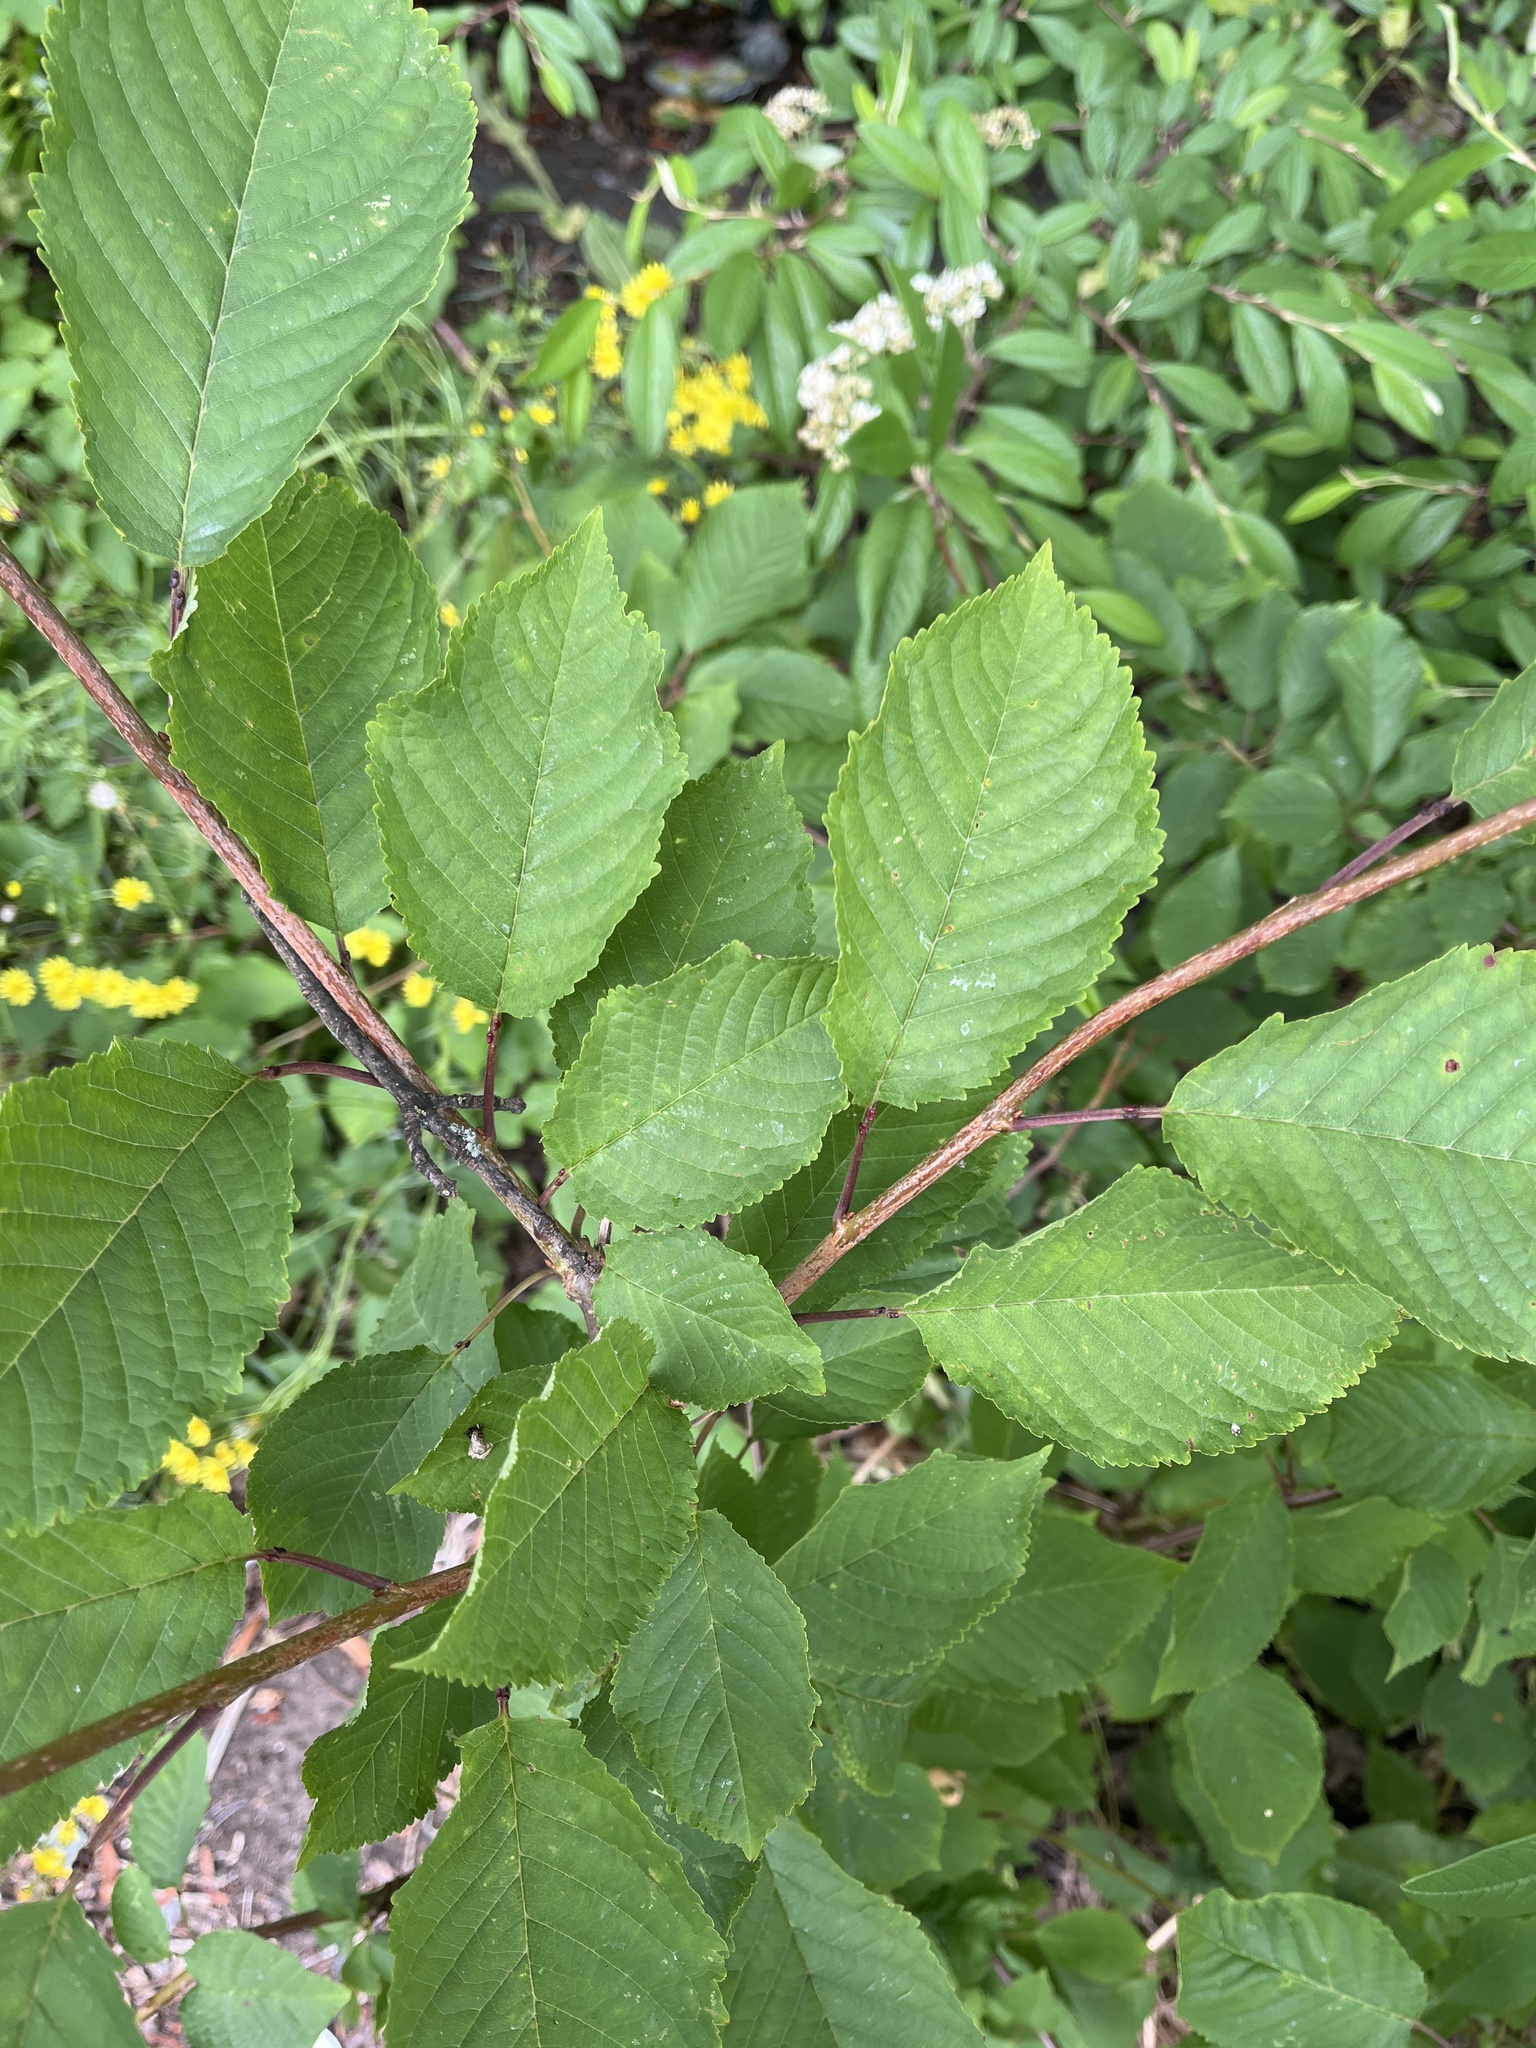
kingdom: Plantae
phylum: Tracheophyta
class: Magnoliopsida
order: Rosales
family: Rosaceae
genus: Prunus
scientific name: Prunus avium
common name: Sweet cherry
